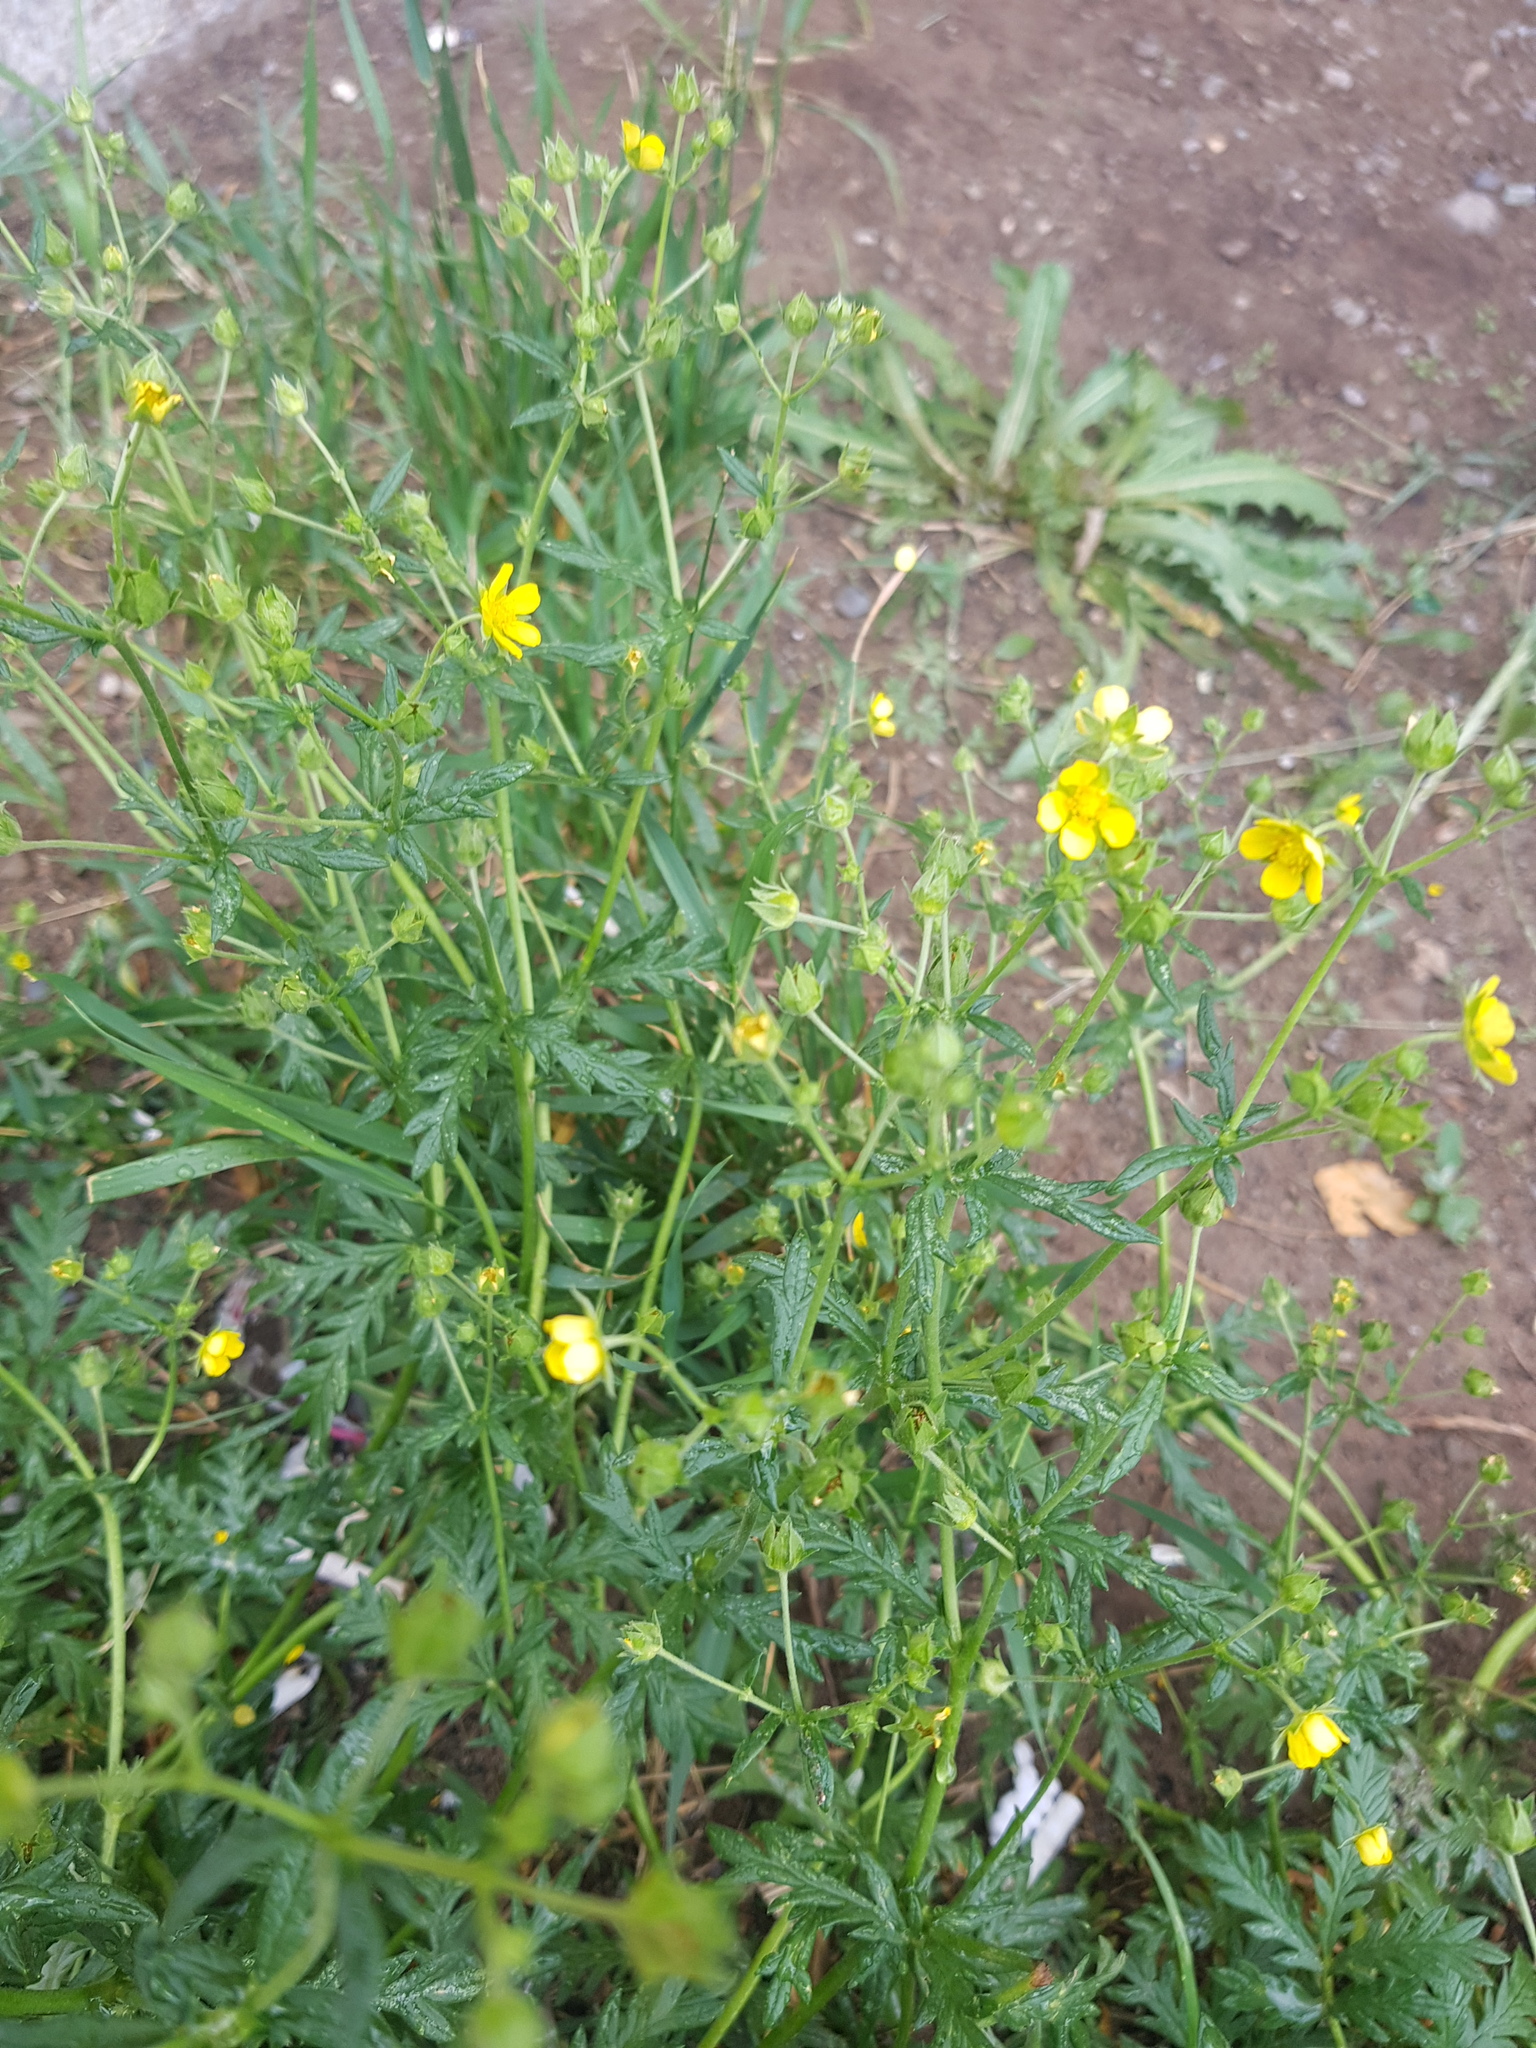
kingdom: Plantae
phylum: Tracheophyta
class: Magnoliopsida
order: Rosales
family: Rosaceae
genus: Potentilla
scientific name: Potentilla ornithopoda
